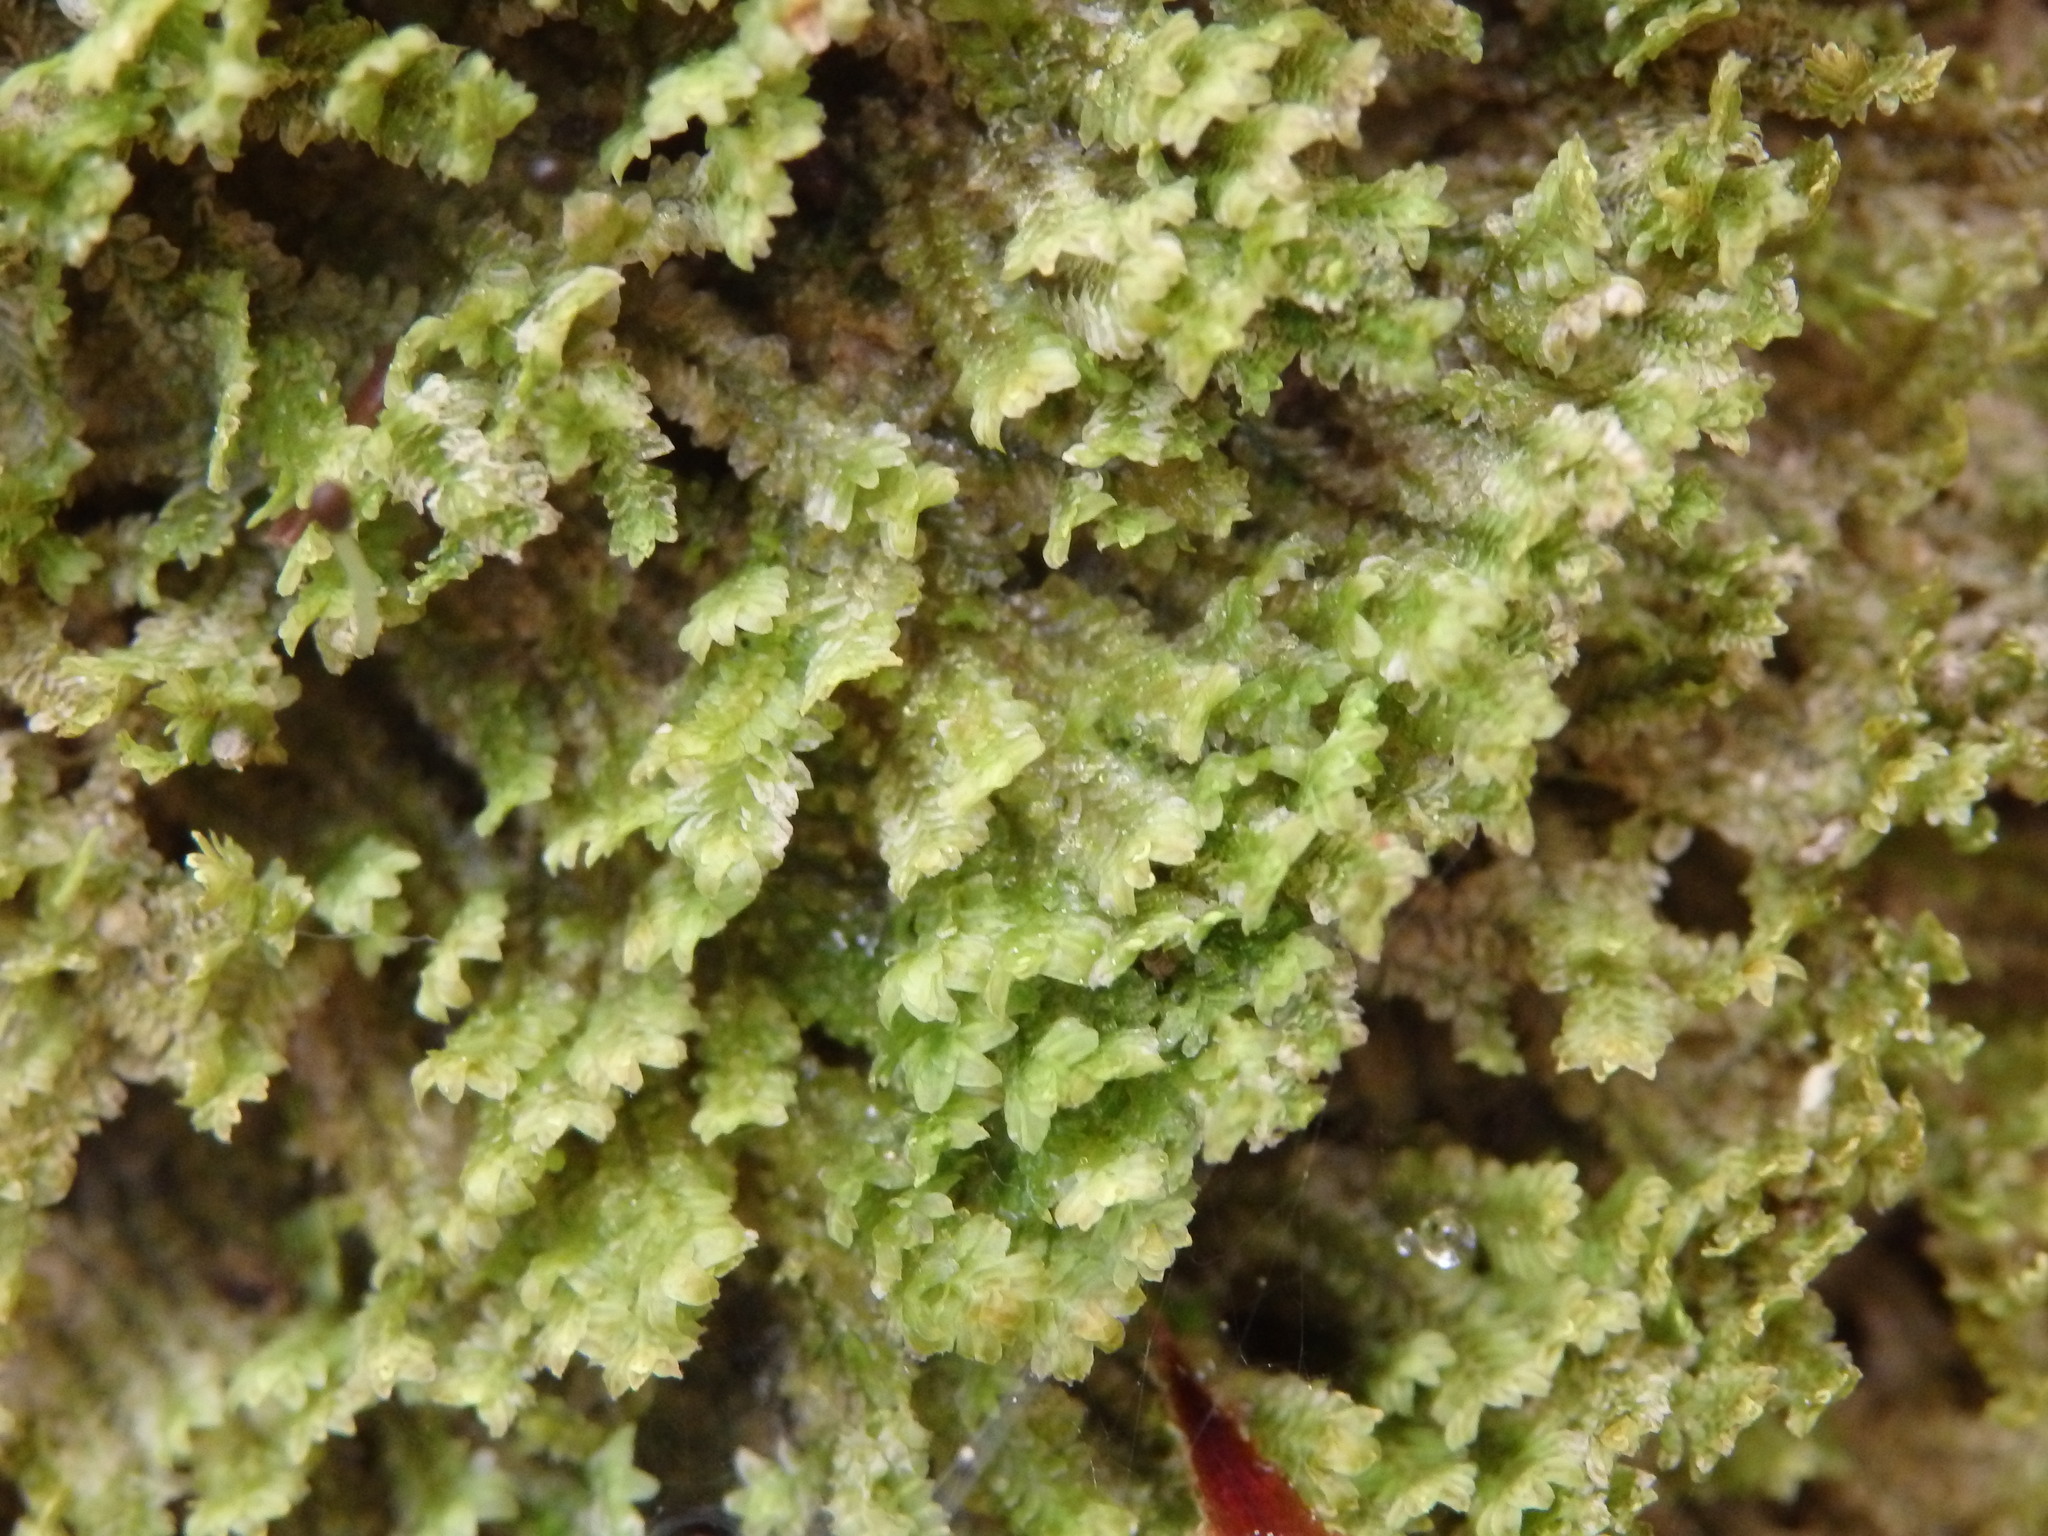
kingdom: Plantae
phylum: Marchantiophyta
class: Jungermanniopsida
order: Jungermanniales
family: Scapaniaceae
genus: Diplophyllum
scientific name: Diplophyllum albicans
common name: White earwort
